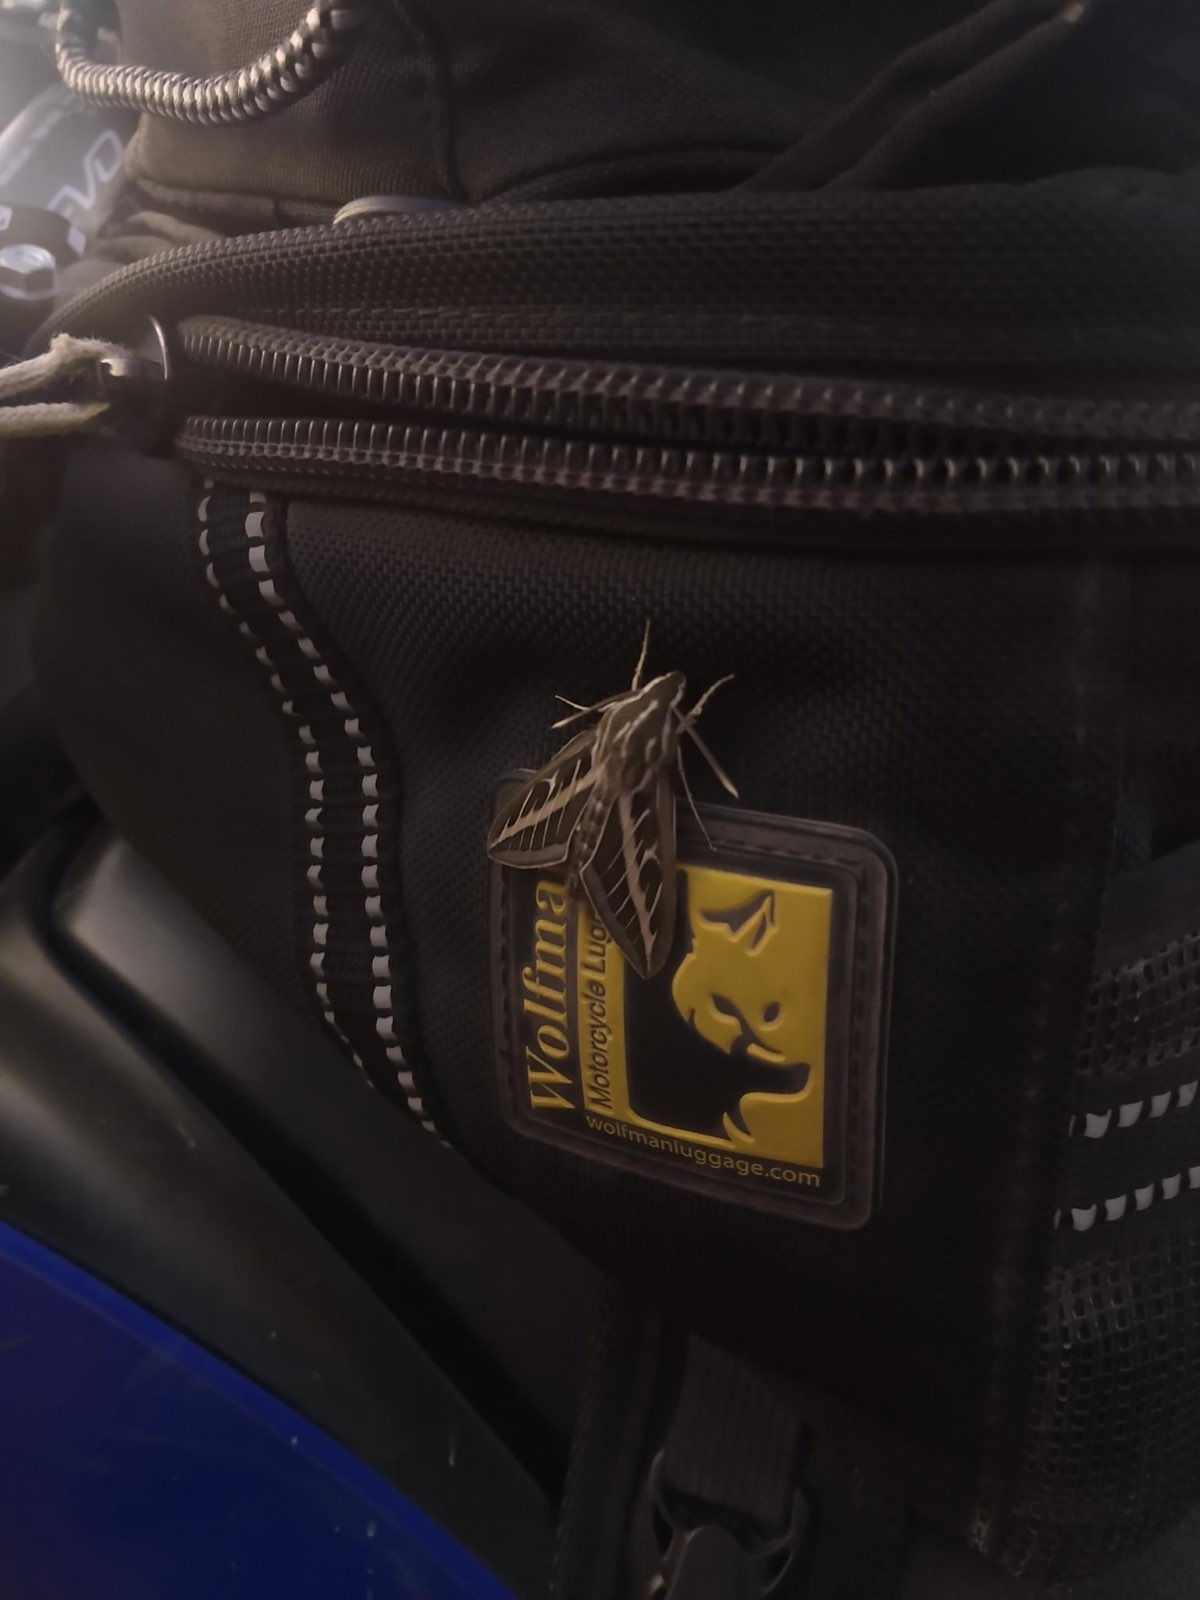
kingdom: Animalia
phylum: Arthropoda
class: Insecta
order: Lepidoptera
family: Sphingidae
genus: Hyles
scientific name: Hyles lineata
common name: White-lined sphinx
